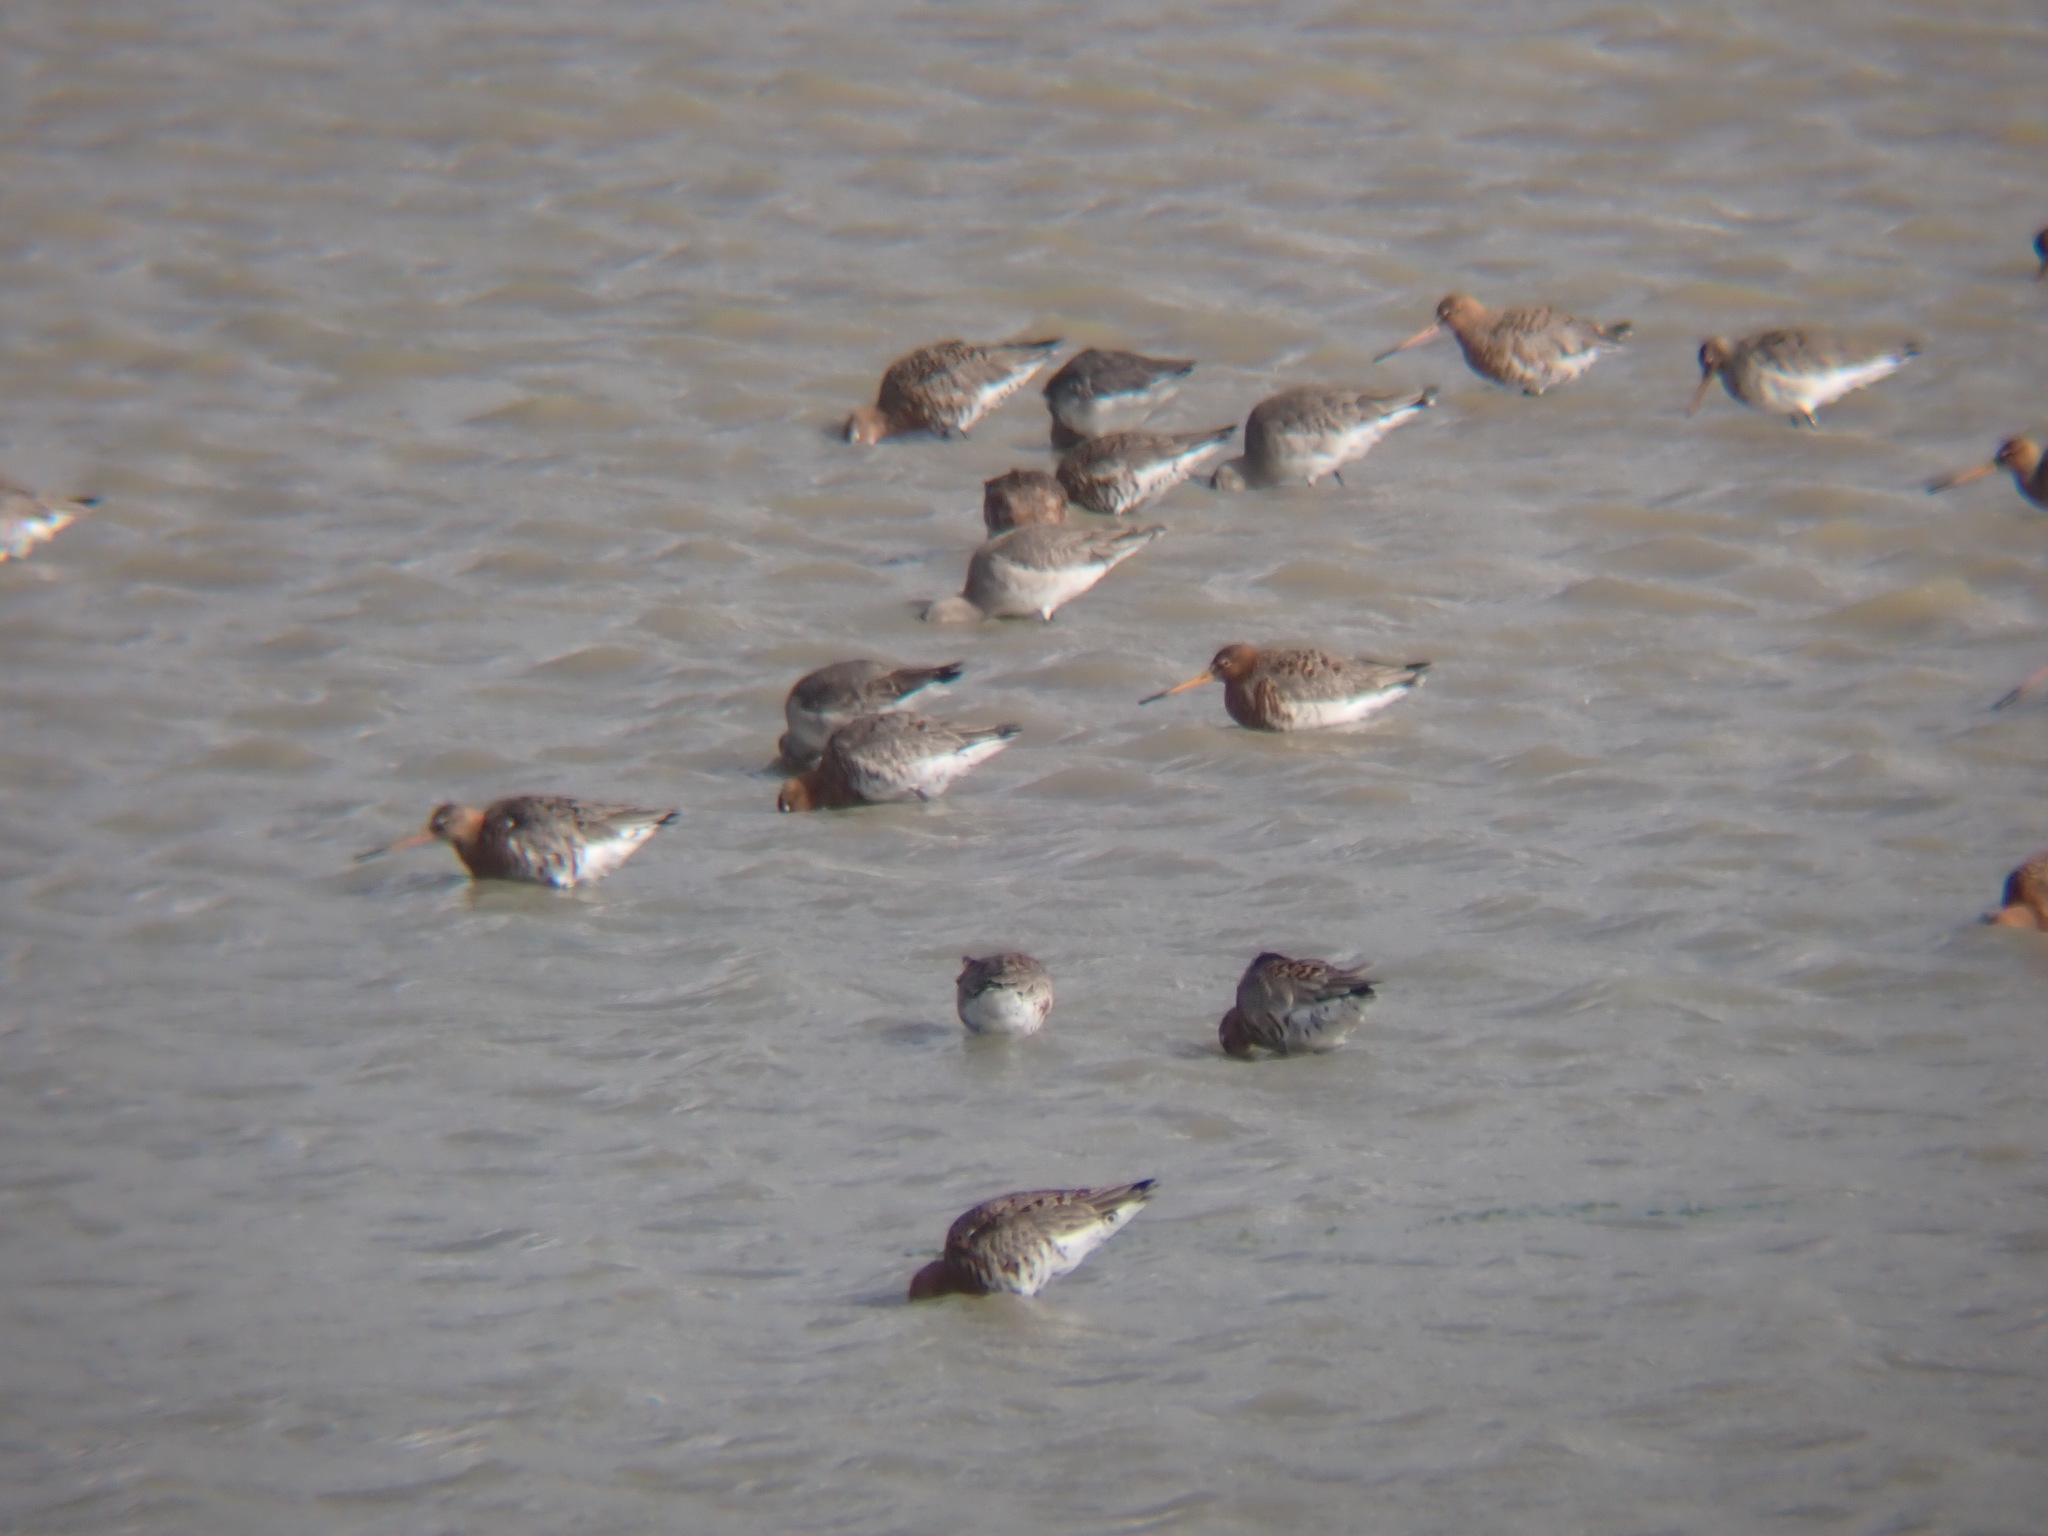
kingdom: Animalia
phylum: Chordata
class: Aves
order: Charadriiformes
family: Scolopacidae
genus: Limosa
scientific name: Limosa limosa
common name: Black-tailed godwit
